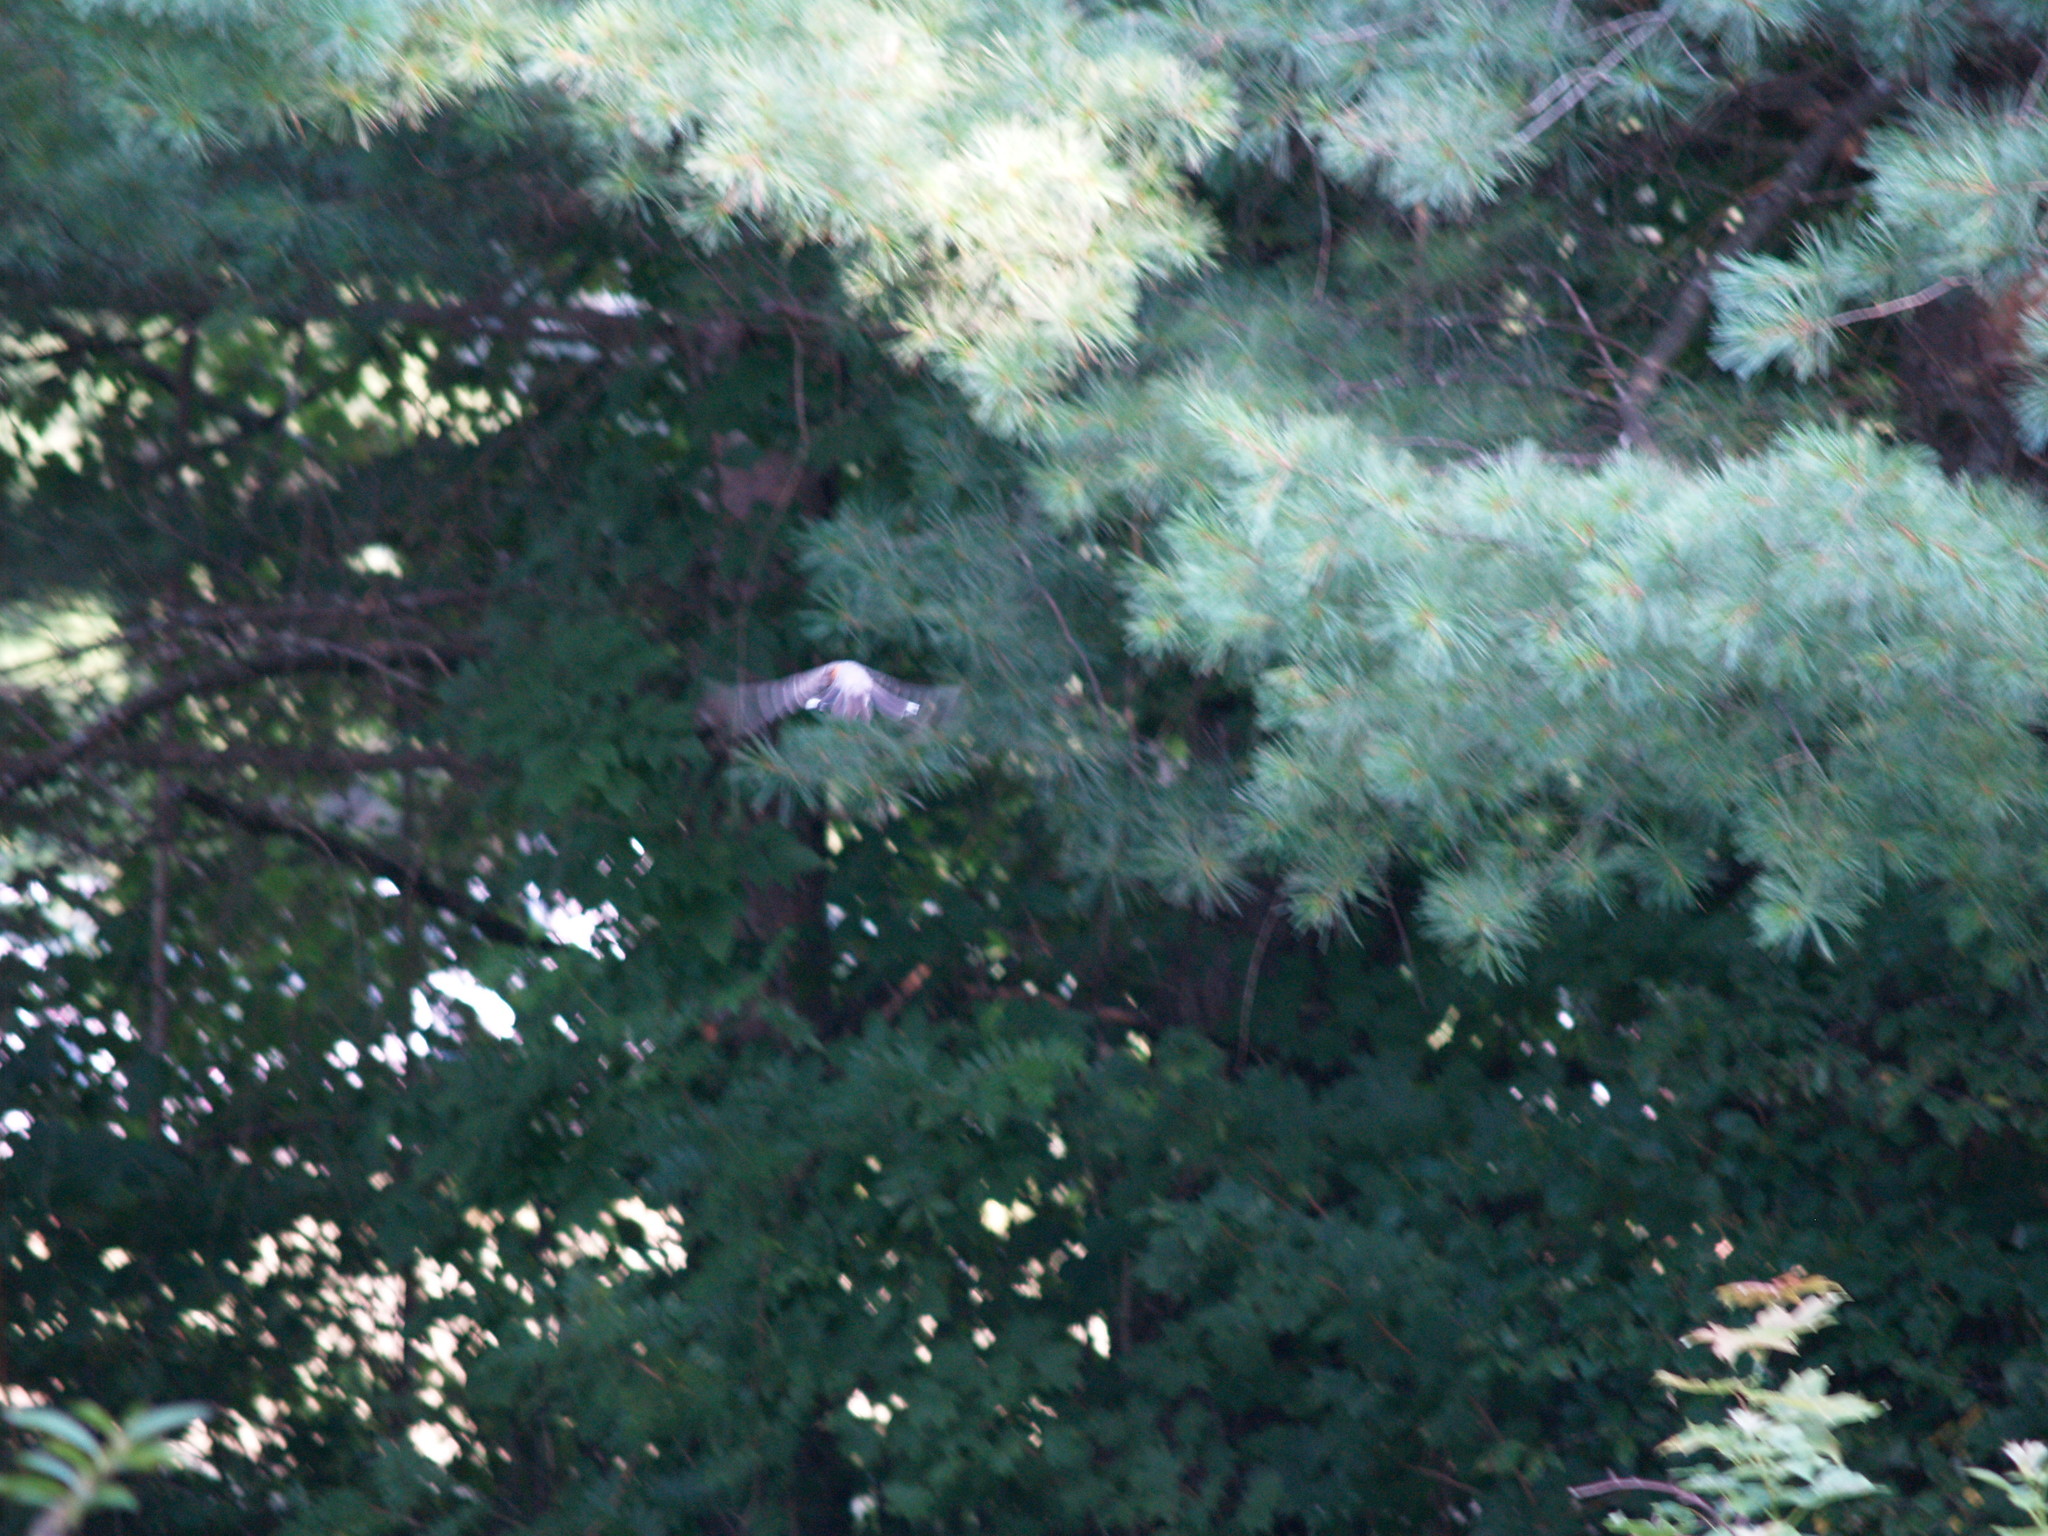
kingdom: Plantae
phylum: Tracheophyta
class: Pinopsida
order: Pinales
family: Pinaceae
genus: Pinus
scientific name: Pinus strobus
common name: Weymouth pine
